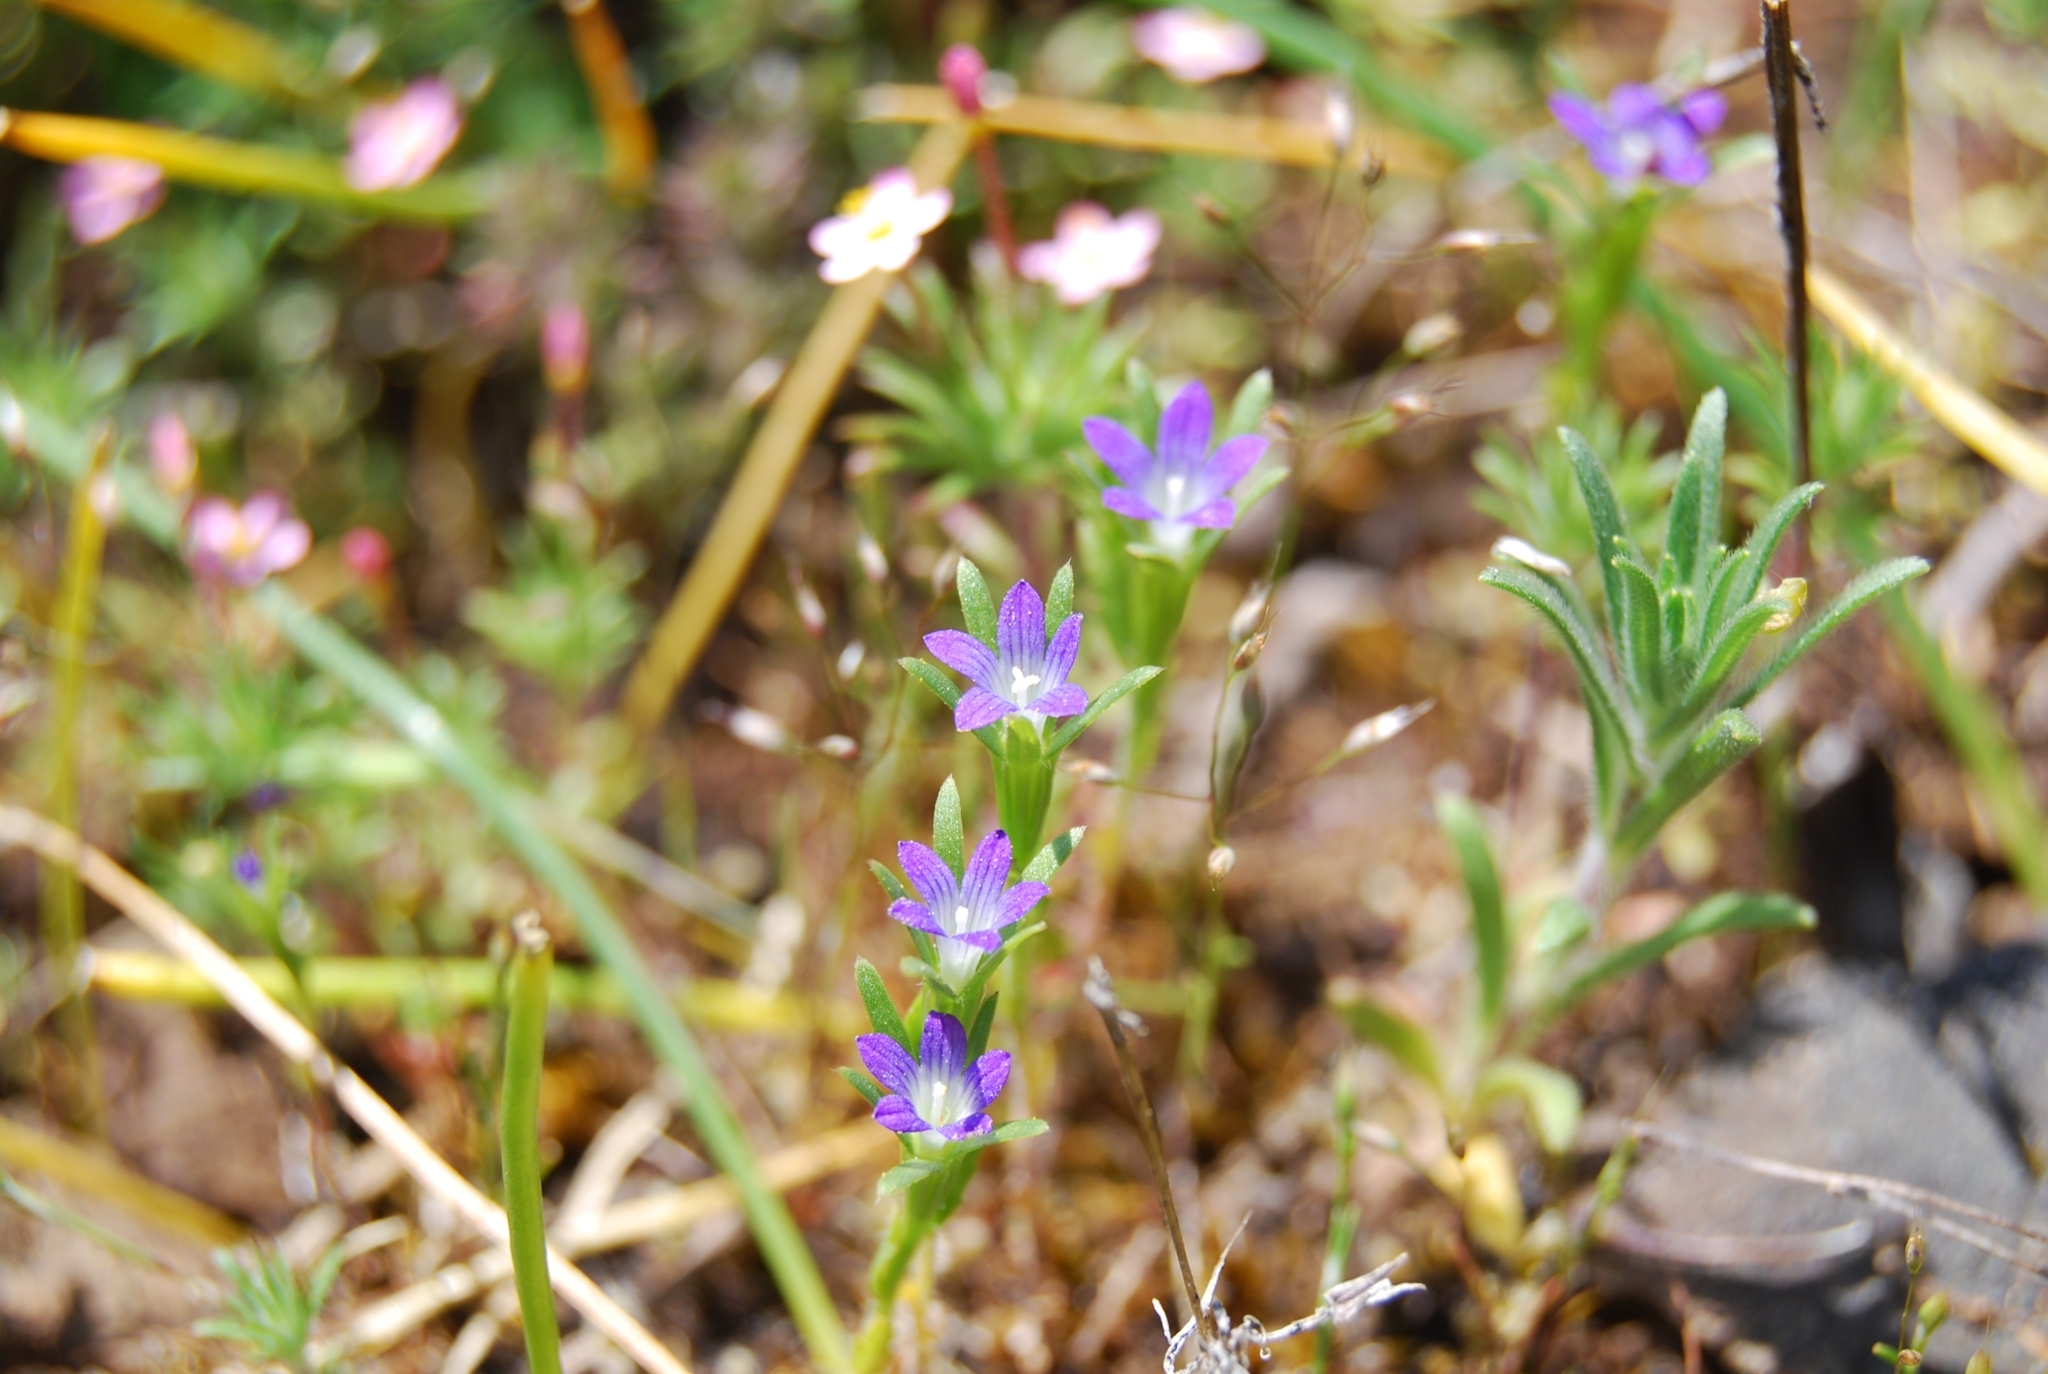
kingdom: Plantae
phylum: Tracheophyta
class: Magnoliopsida
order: Asterales
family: Campanulaceae
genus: Githopsis
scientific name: Githopsis specularioides
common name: Common bluecup
